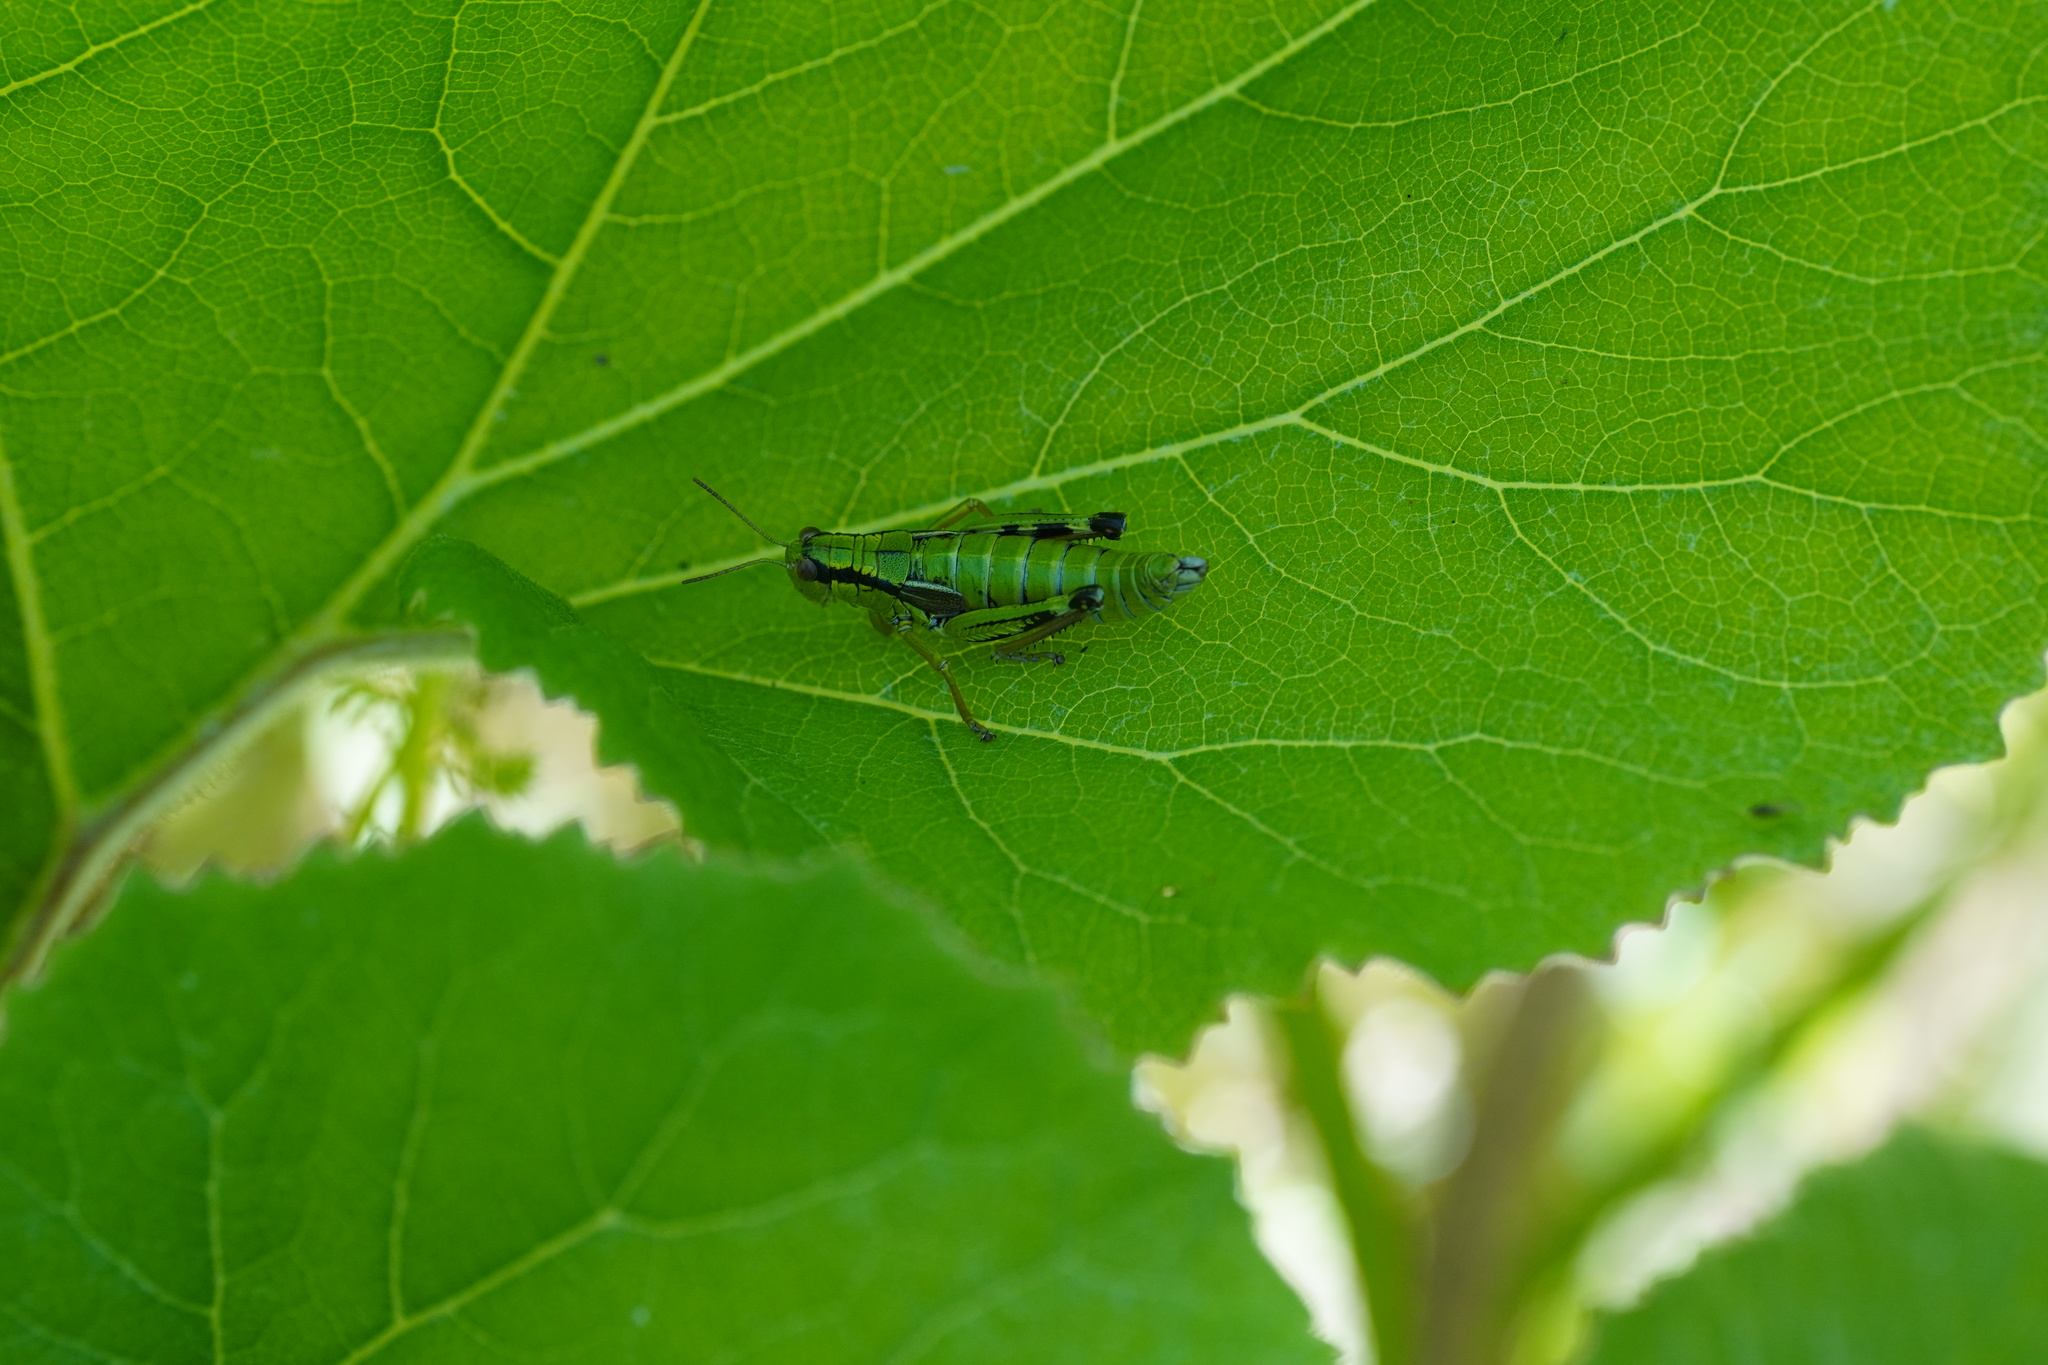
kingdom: Animalia
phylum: Arthropoda
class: Insecta
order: Orthoptera
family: Acrididae
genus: Miramella
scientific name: Miramella alpina
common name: Green mountain grasshopper
